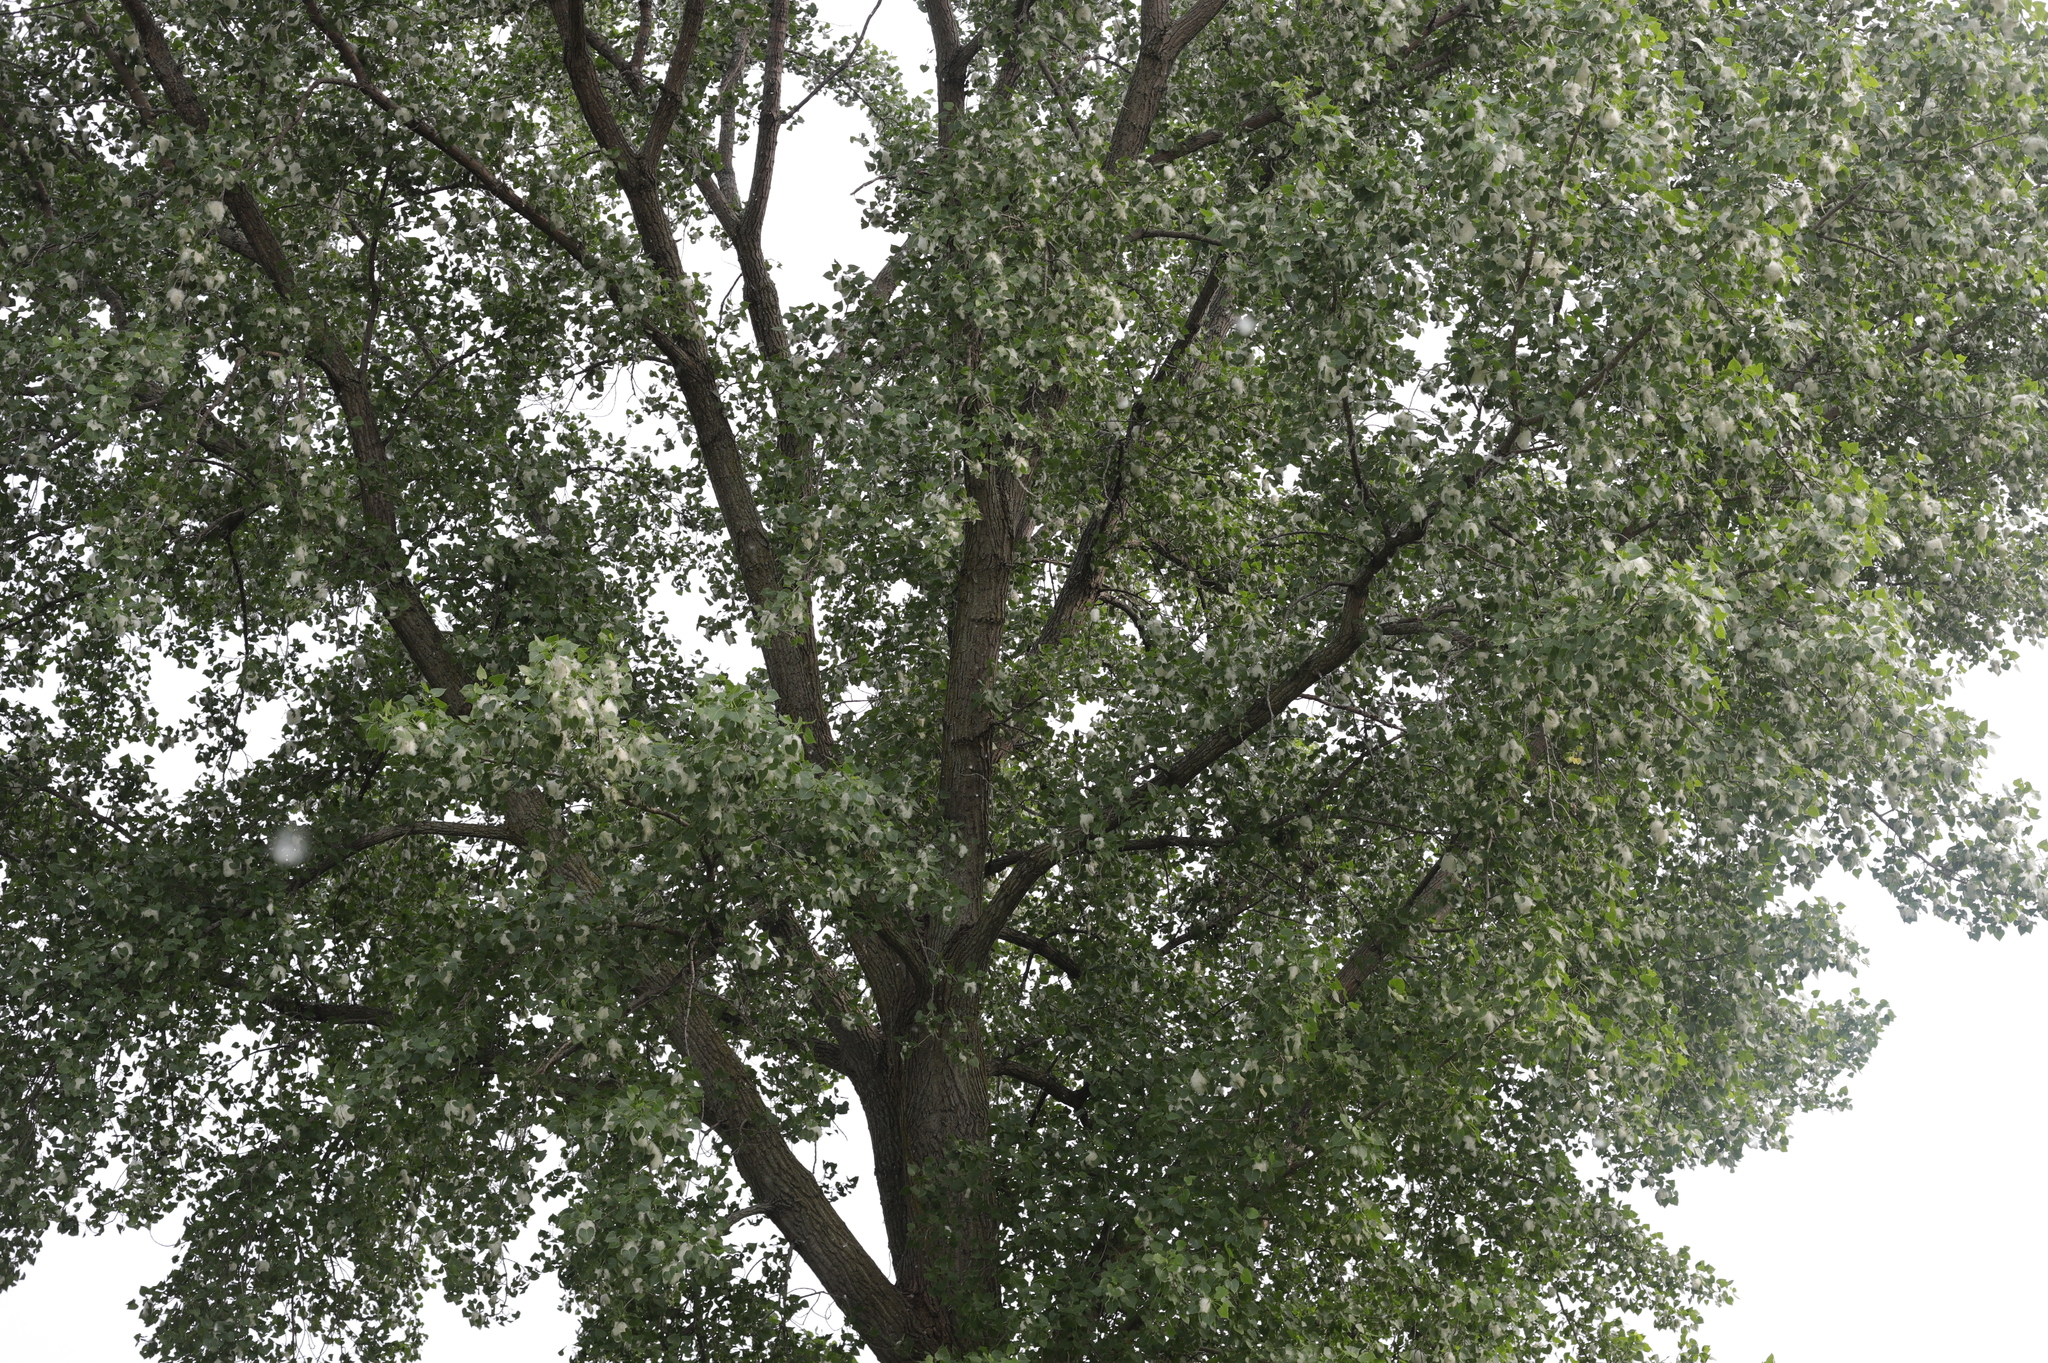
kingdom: Plantae
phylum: Tracheophyta
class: Magnoliopsida
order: Malpighiales
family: Salicaceae
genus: Populus
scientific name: Populus deltoides
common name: Eastern cottonwood
